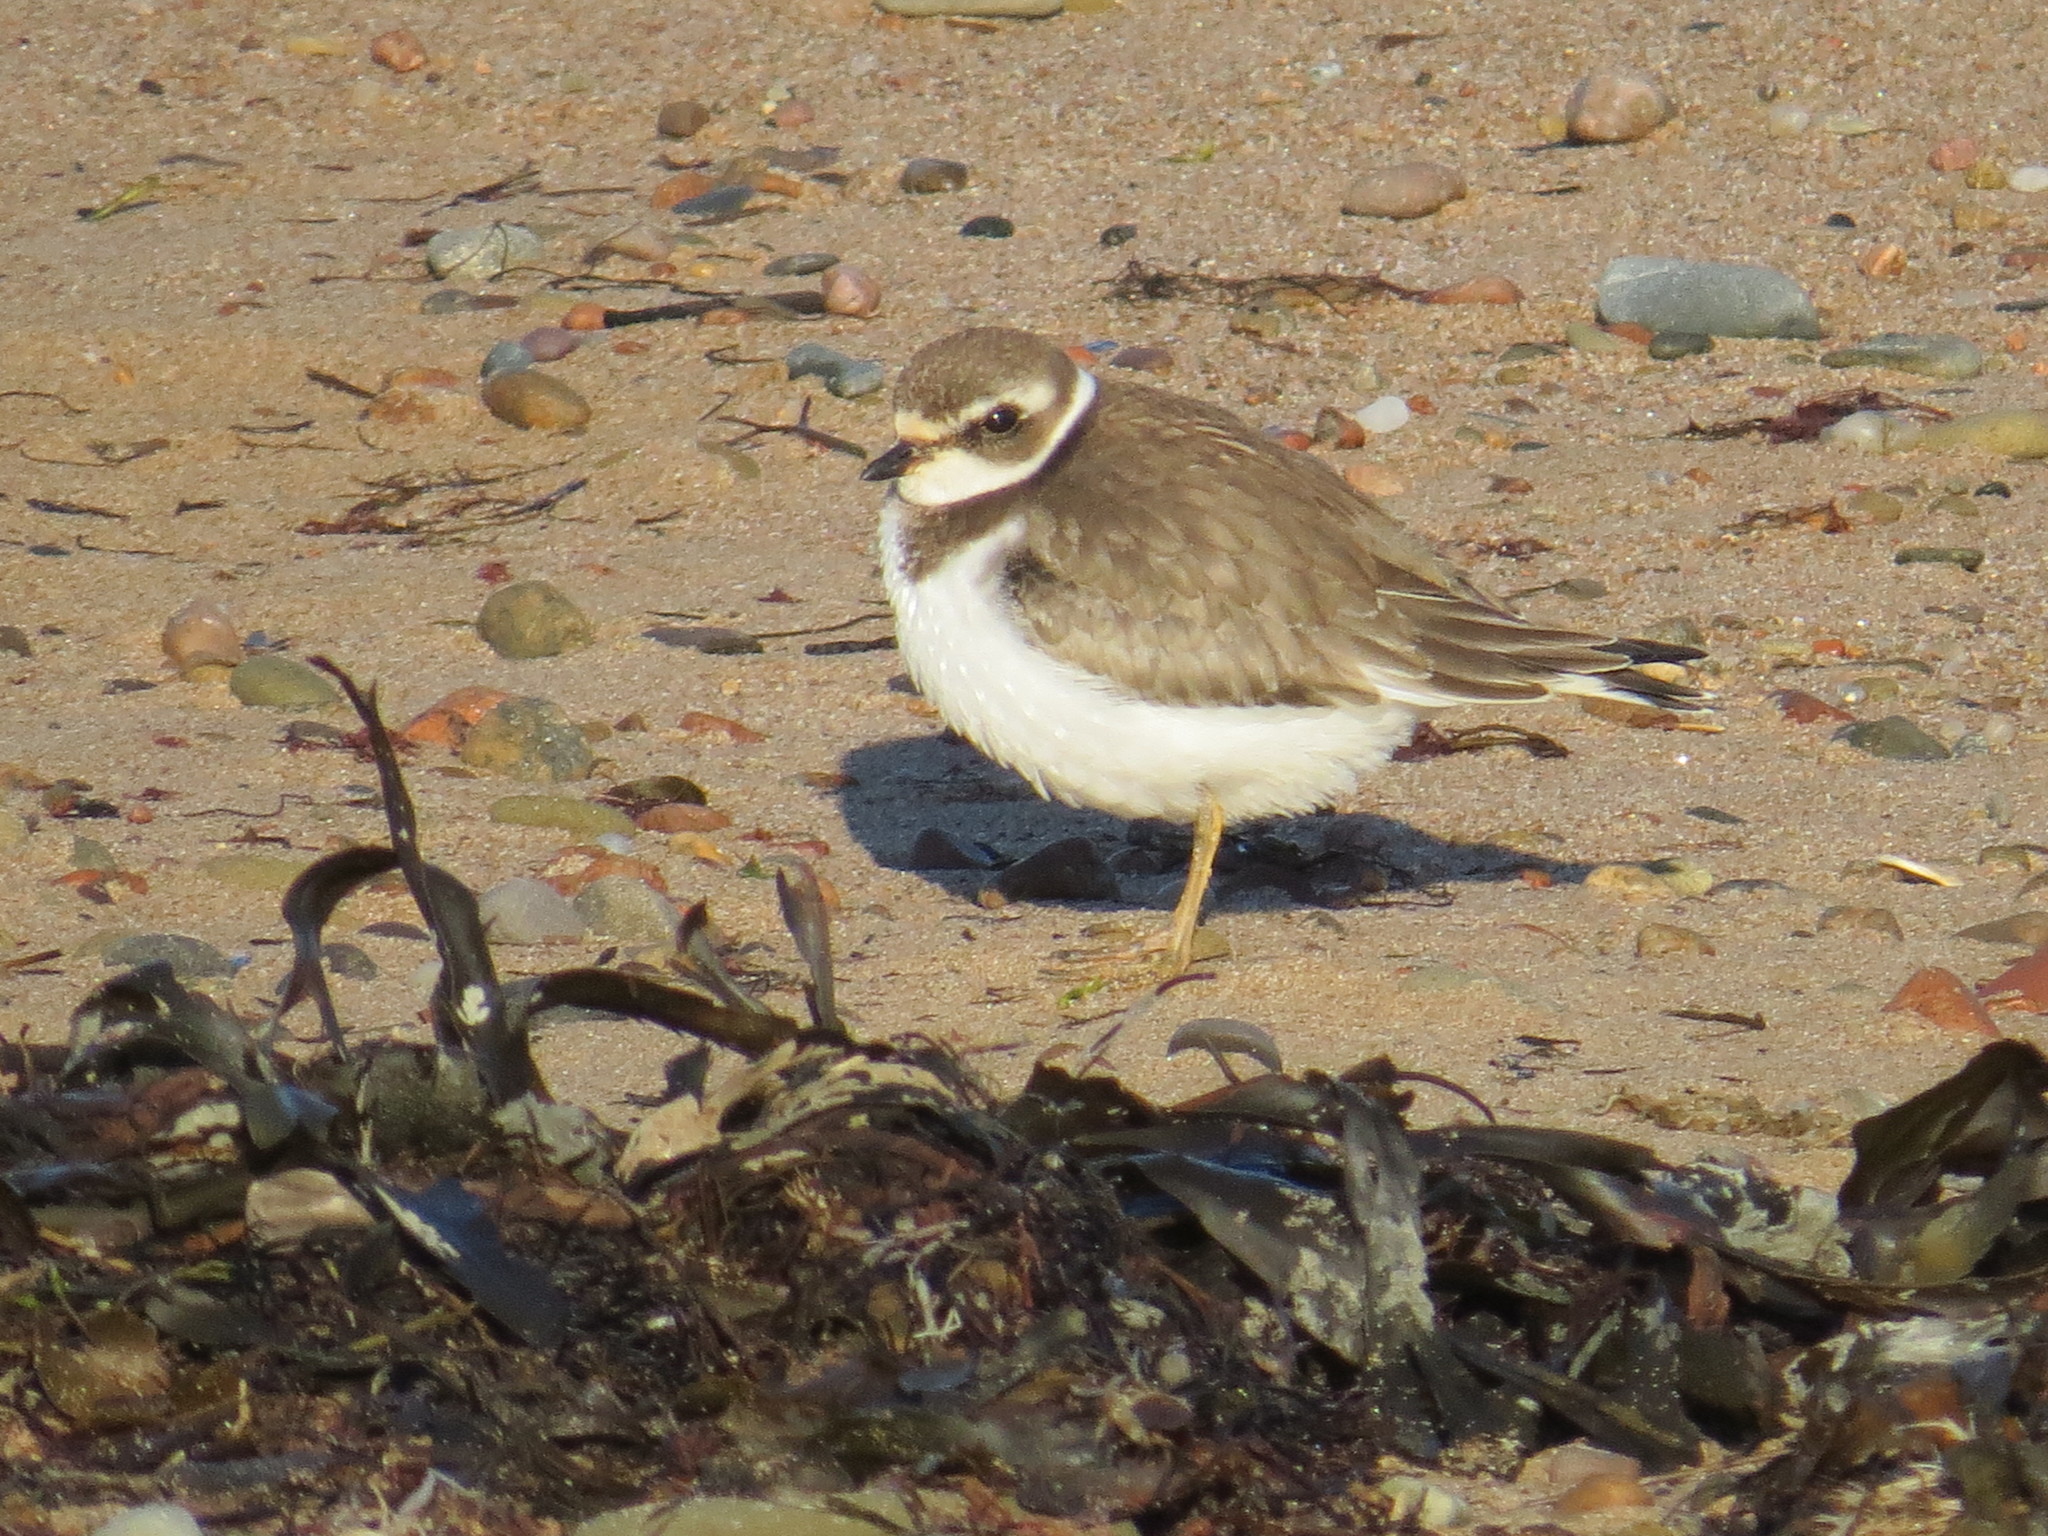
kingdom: Animalia
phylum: Chordata
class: Aves
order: Charadriiformes
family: Charadriidae
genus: Charadrius
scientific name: Charadrius semipalmatus
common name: Semipalmated plover
